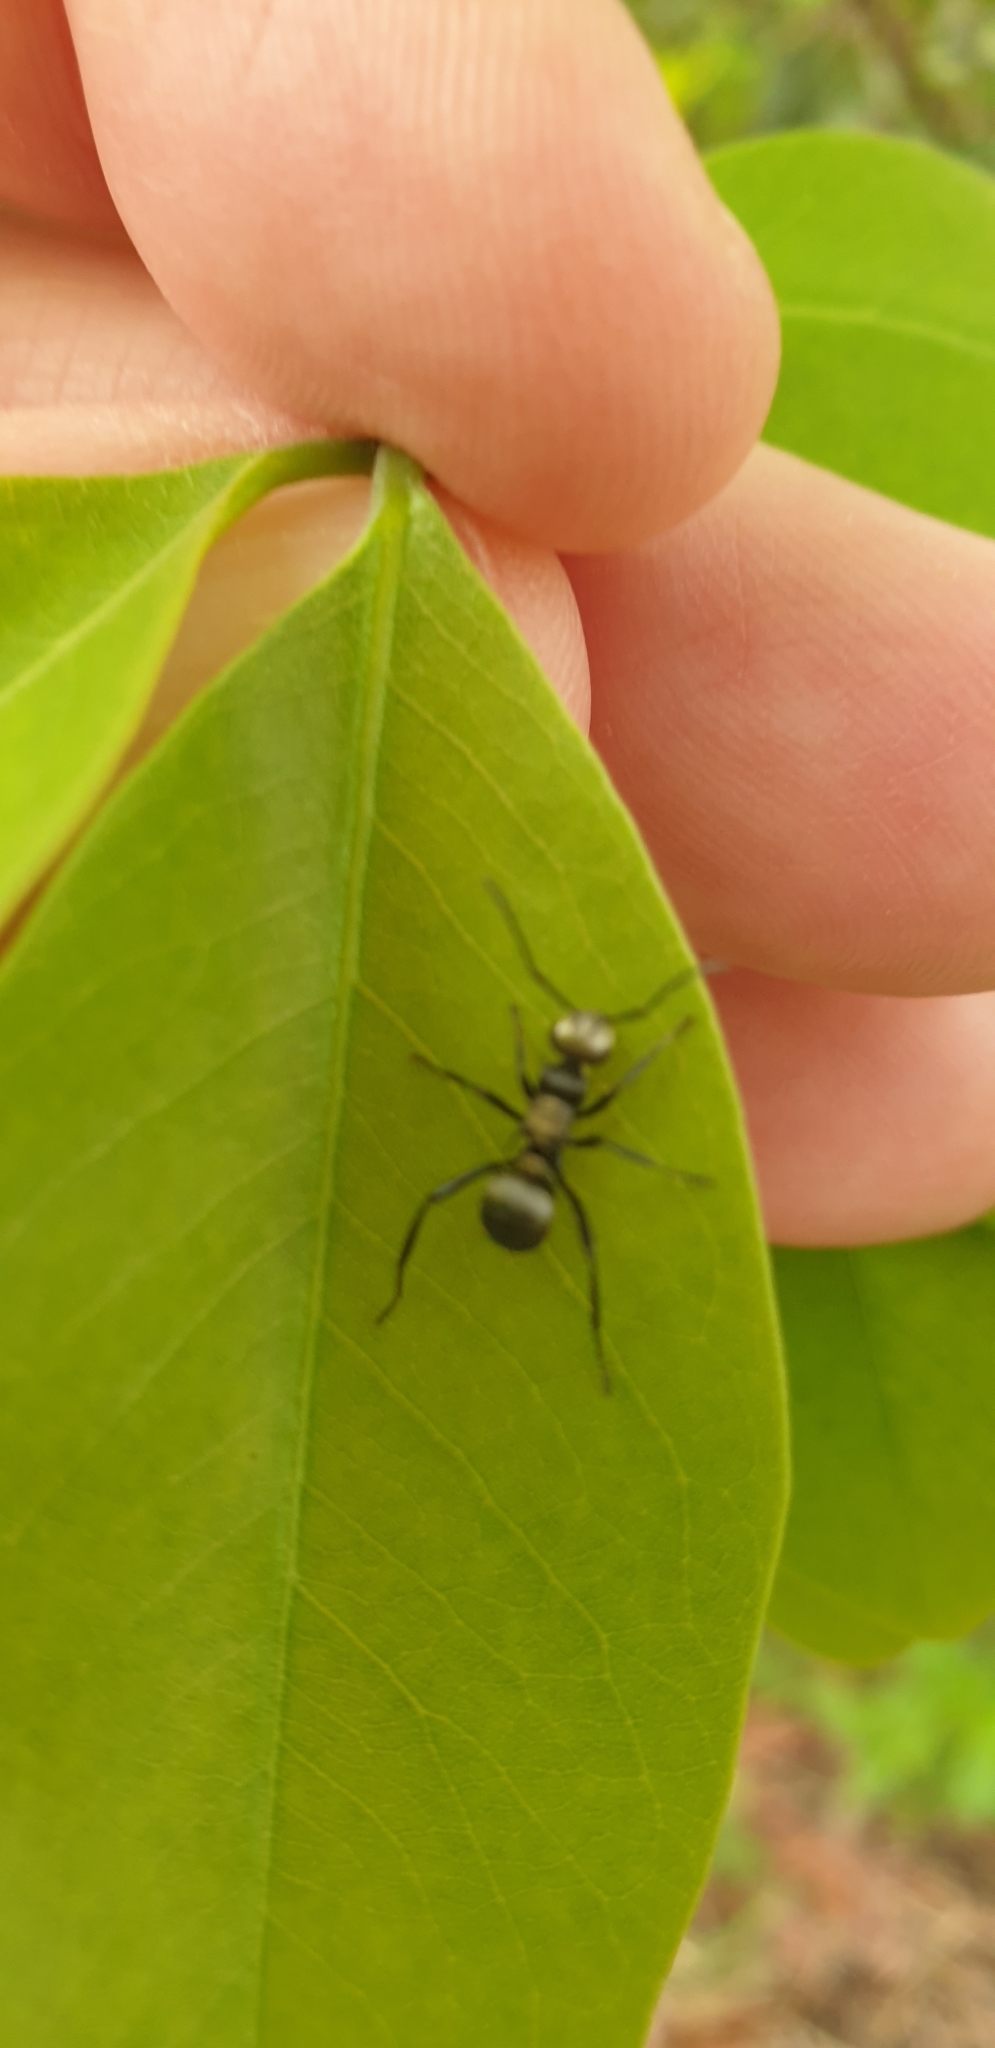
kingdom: Animalia
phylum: Arthropoda
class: Insecta
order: Hymenoptera
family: Formicidae
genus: Polyrhachis
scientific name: Polyrhachis daemeli
